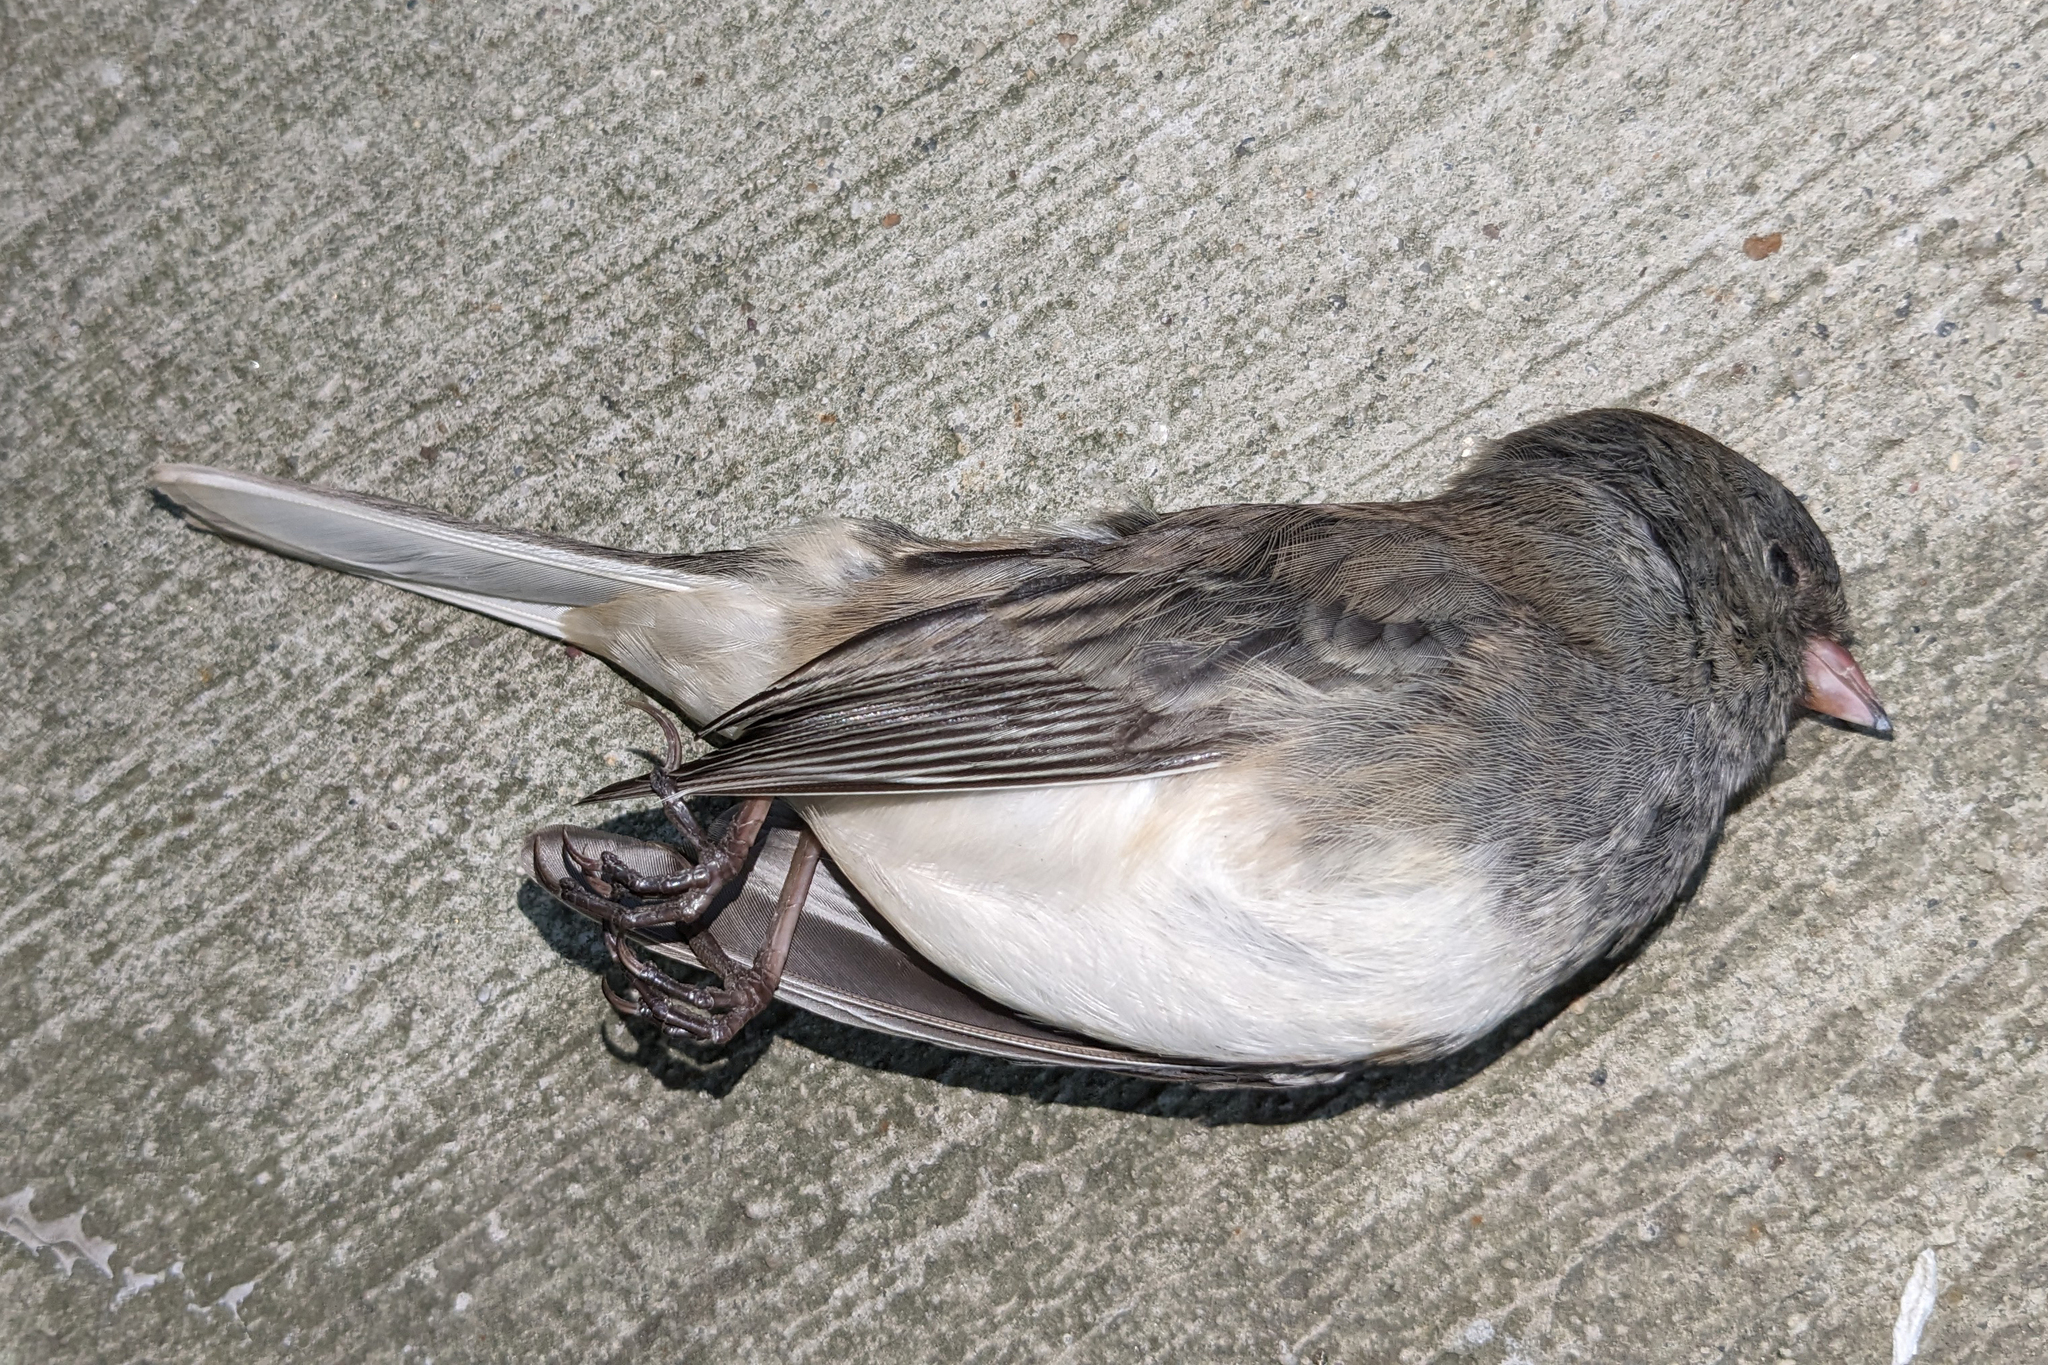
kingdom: Animalia
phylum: Chordata
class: Aves
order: Passeriformes
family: Passerellidae
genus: Junco
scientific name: Junco hyemalis
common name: Dark-eyed junco
